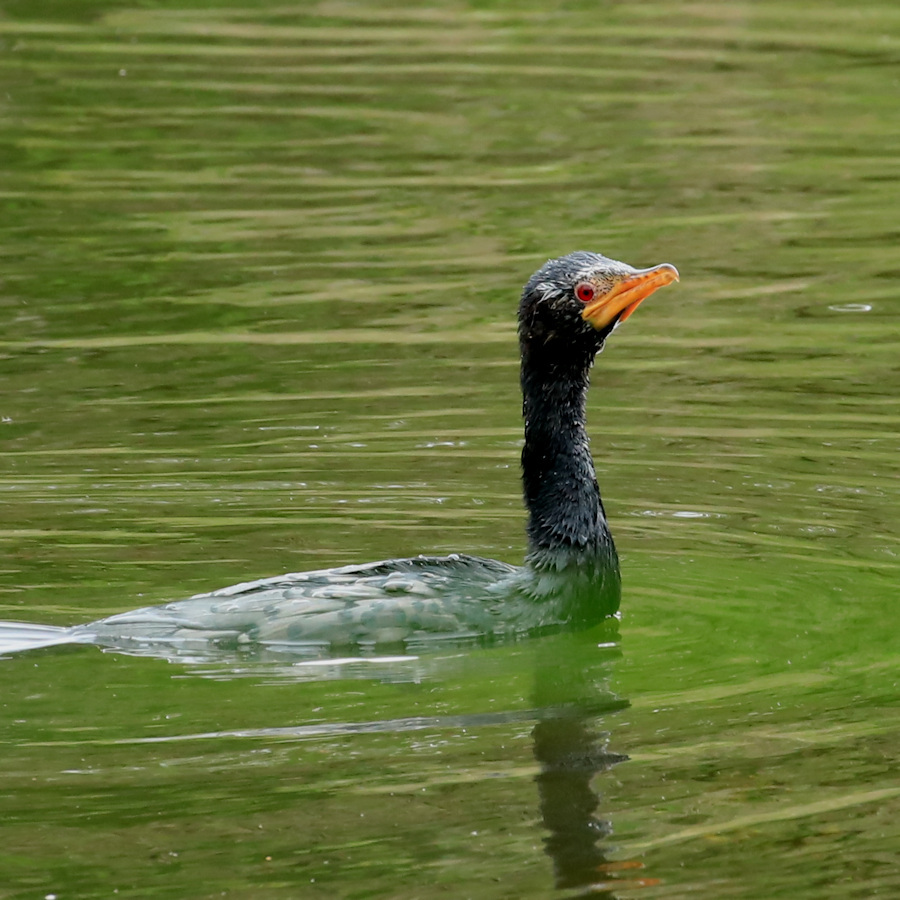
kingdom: Animalia
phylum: Chordata
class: Aves
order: Suliformes
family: Phalacrocoracidae
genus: Microcarbo
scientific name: Microcarbo africanus
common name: Long-tailed cormorant
